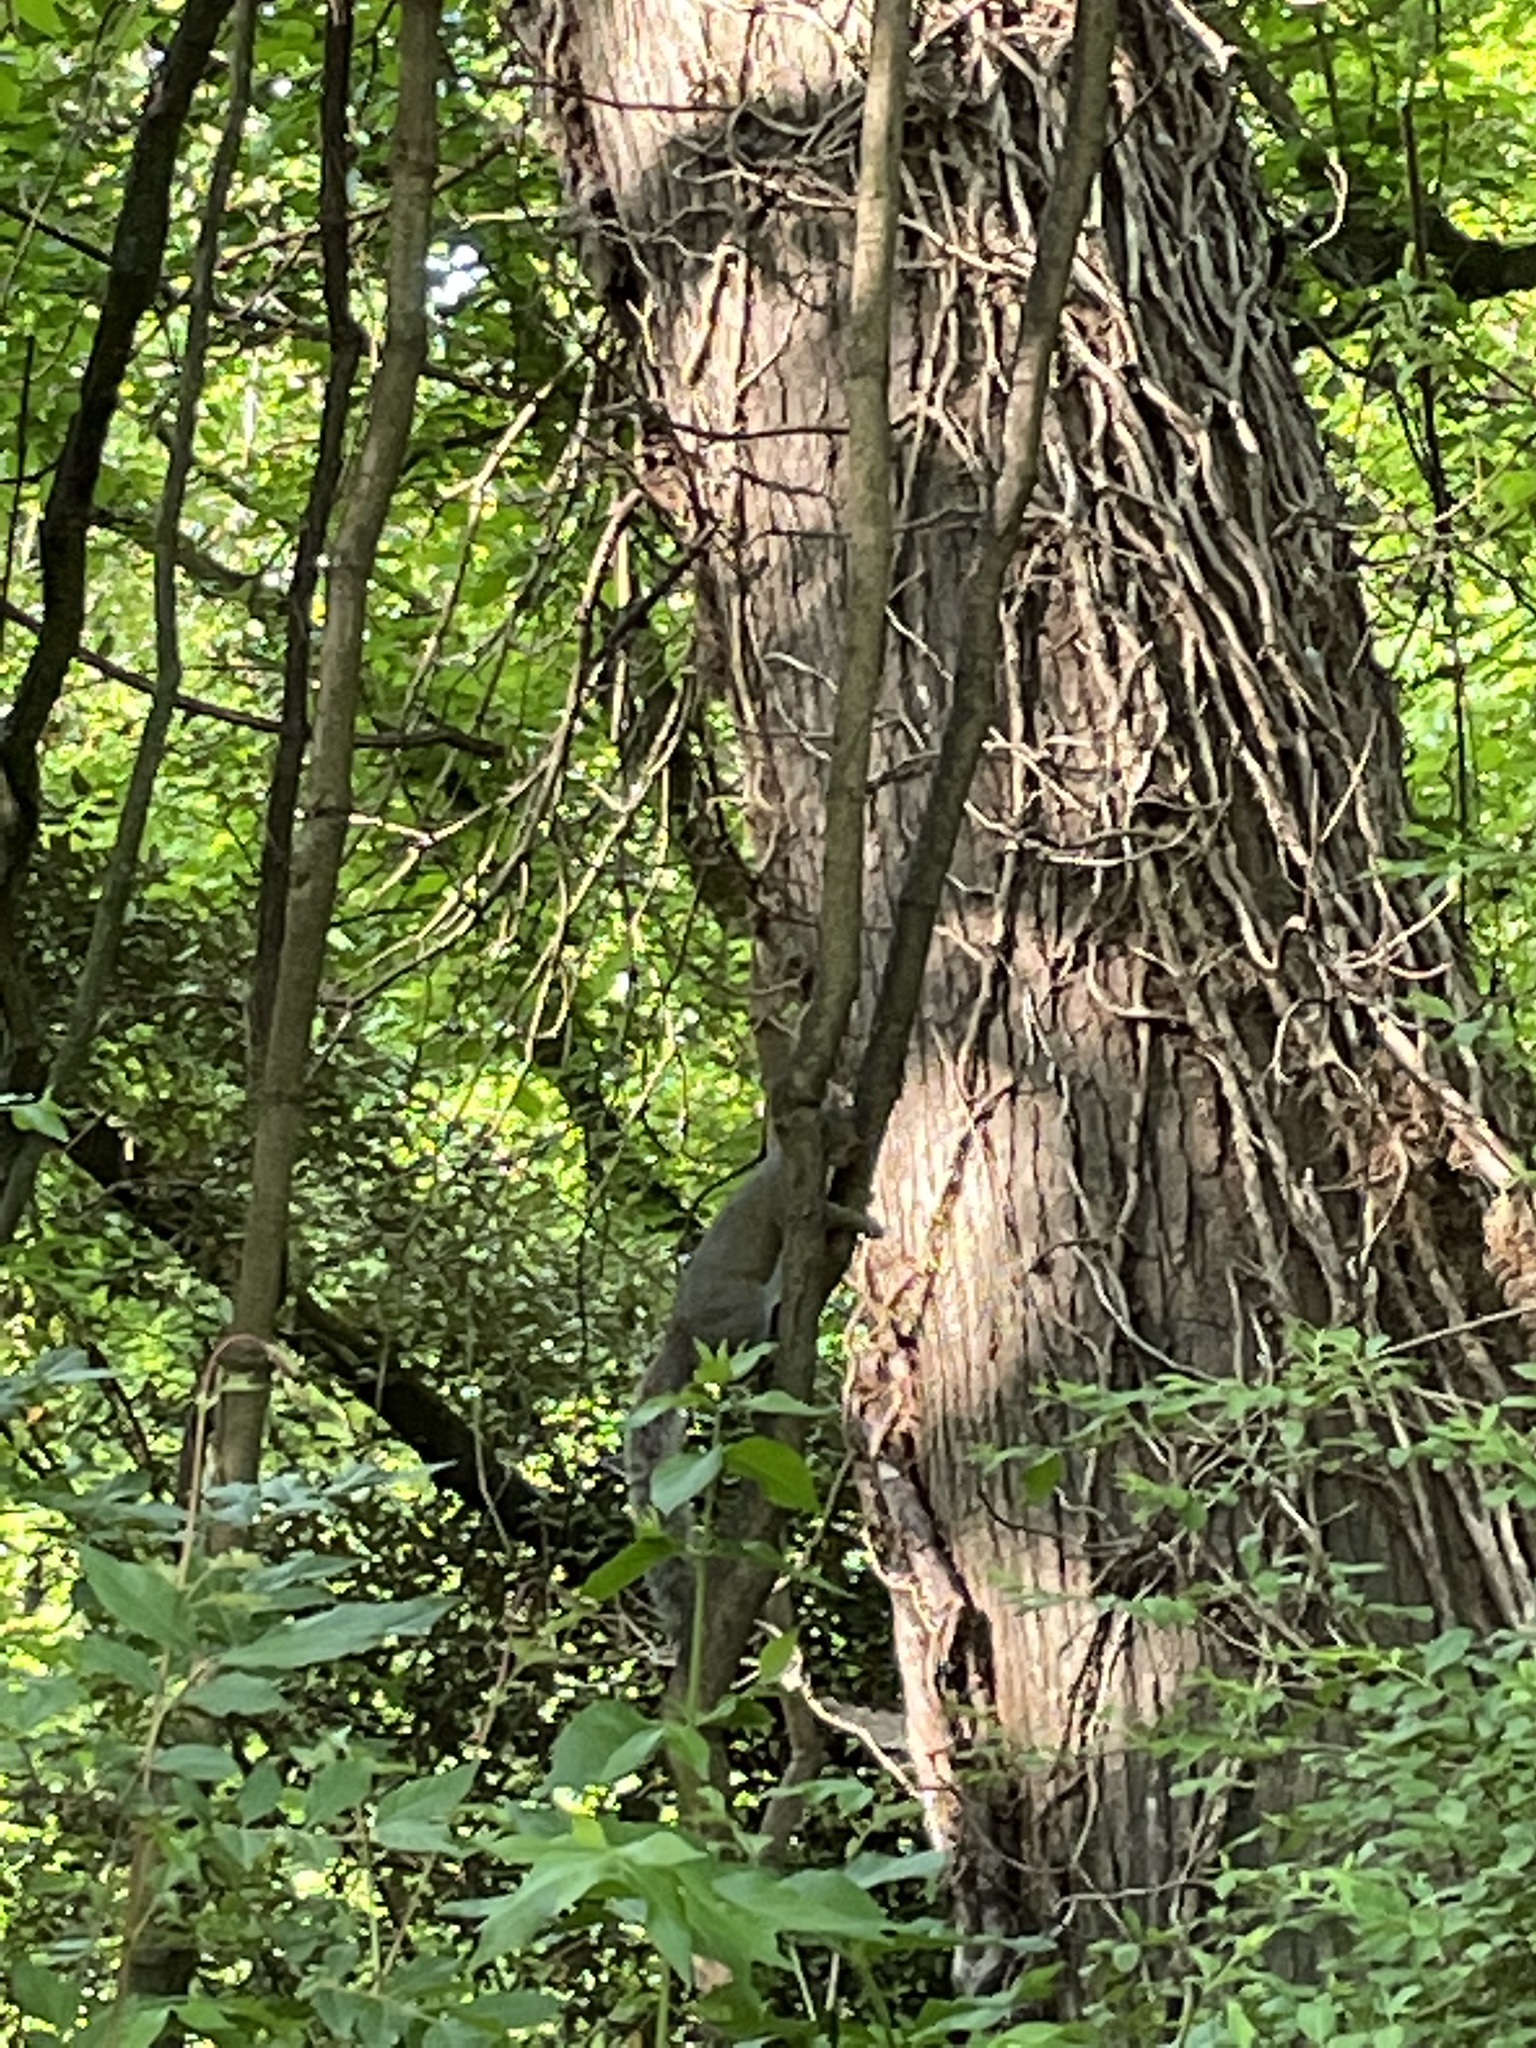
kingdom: Animalia
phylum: Chordata
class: Mammalia
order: Rodentia
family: Sciuridae
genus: Sciurus
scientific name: Sciurus carolinensis
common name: Eastern gray squirrel
